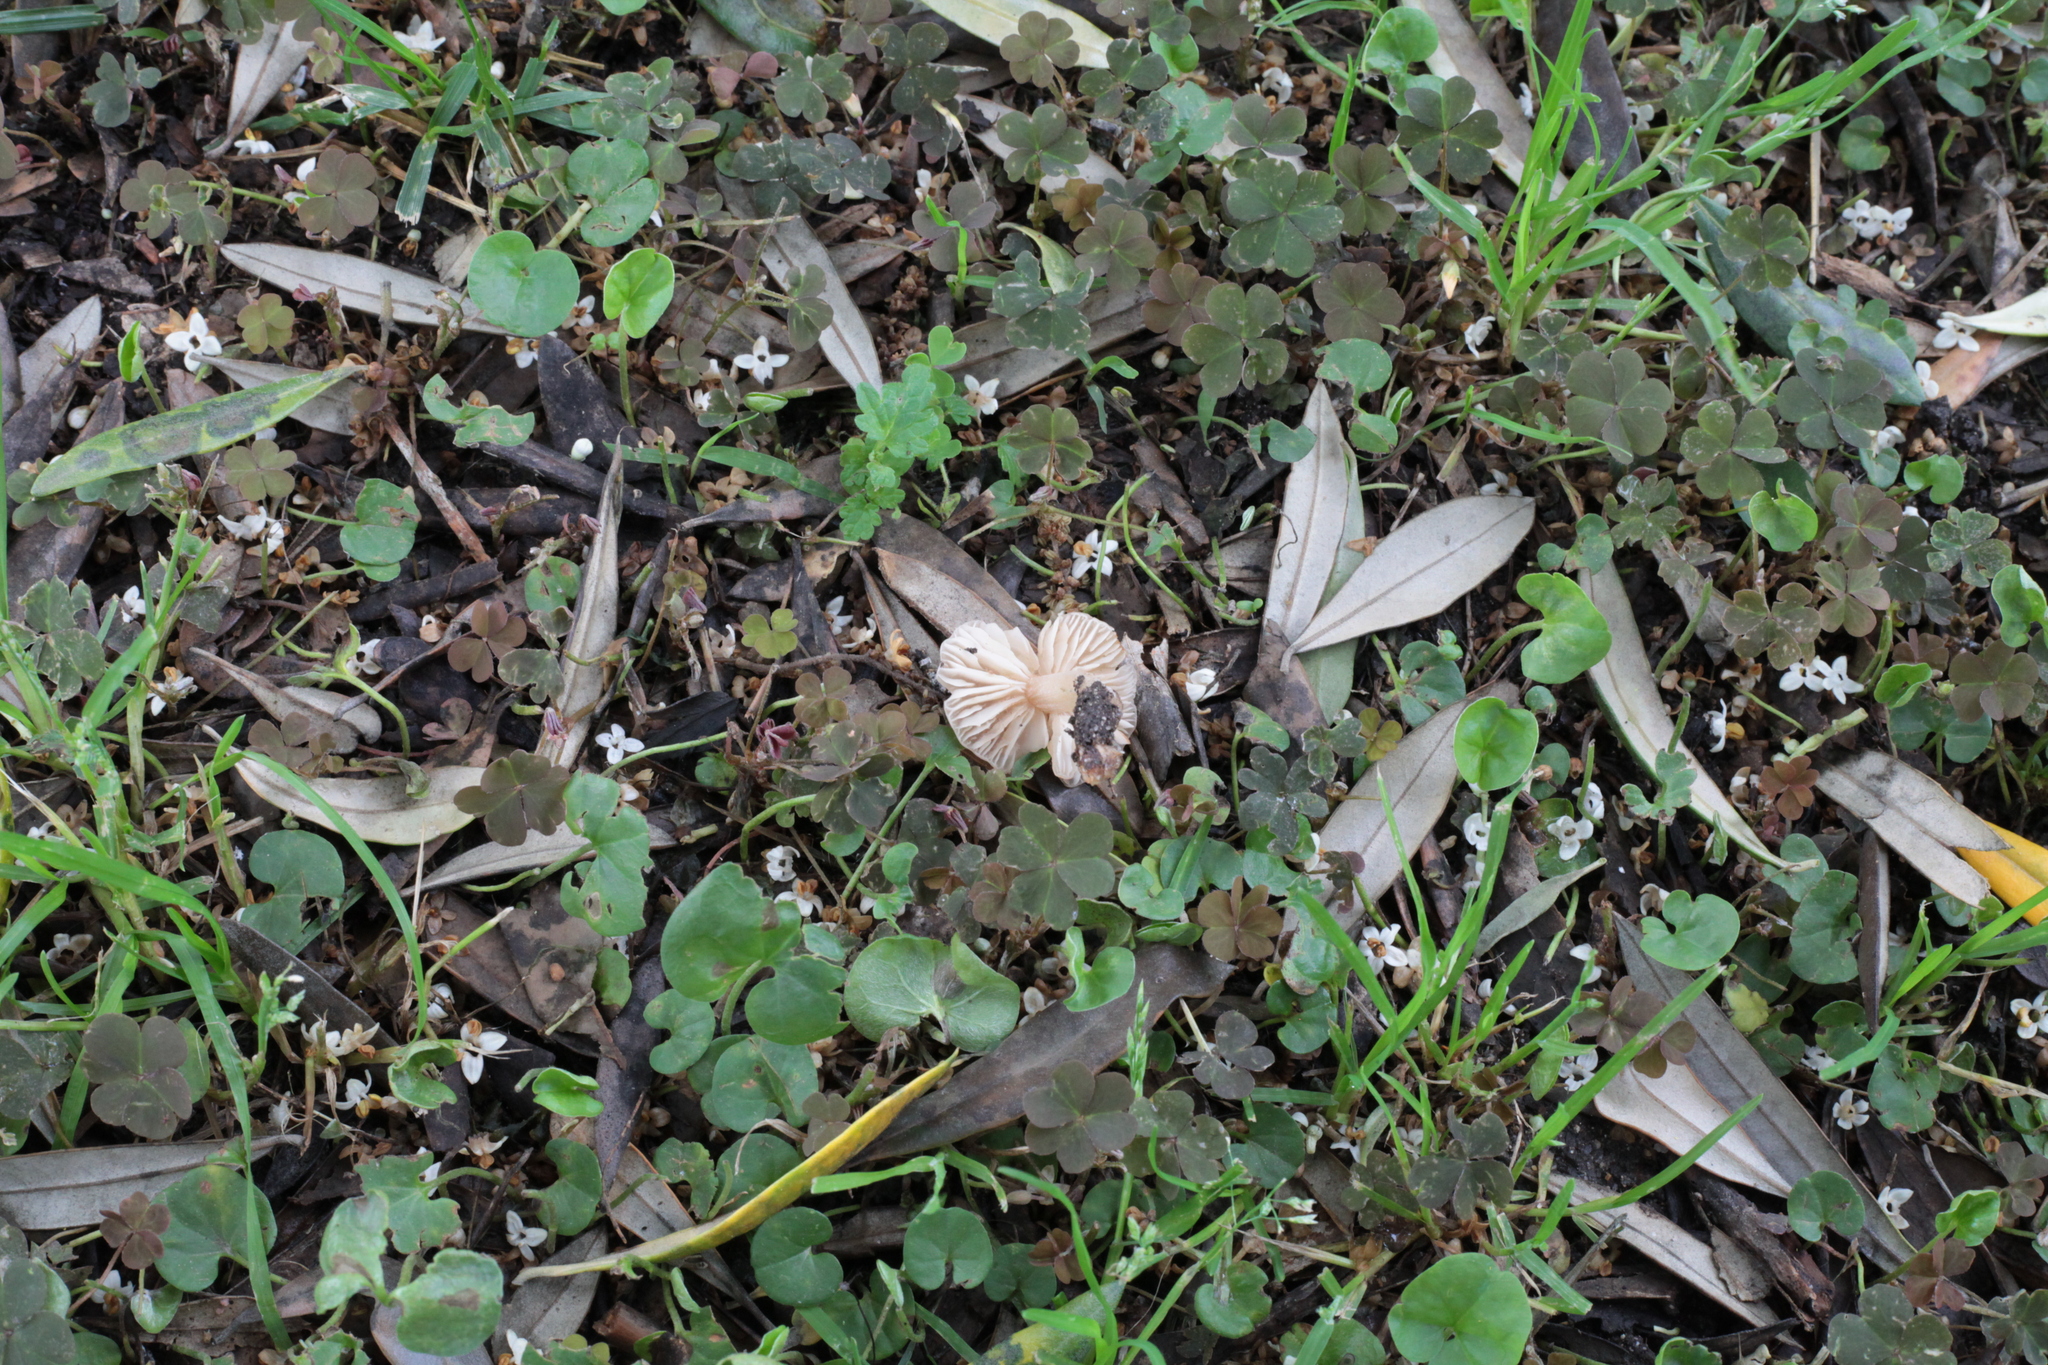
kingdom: Fungi
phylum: Basidiomycota
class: Agaricomycetes
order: Agaricales
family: Marasmiaceae
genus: Marasmius
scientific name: Marasmius collinus
